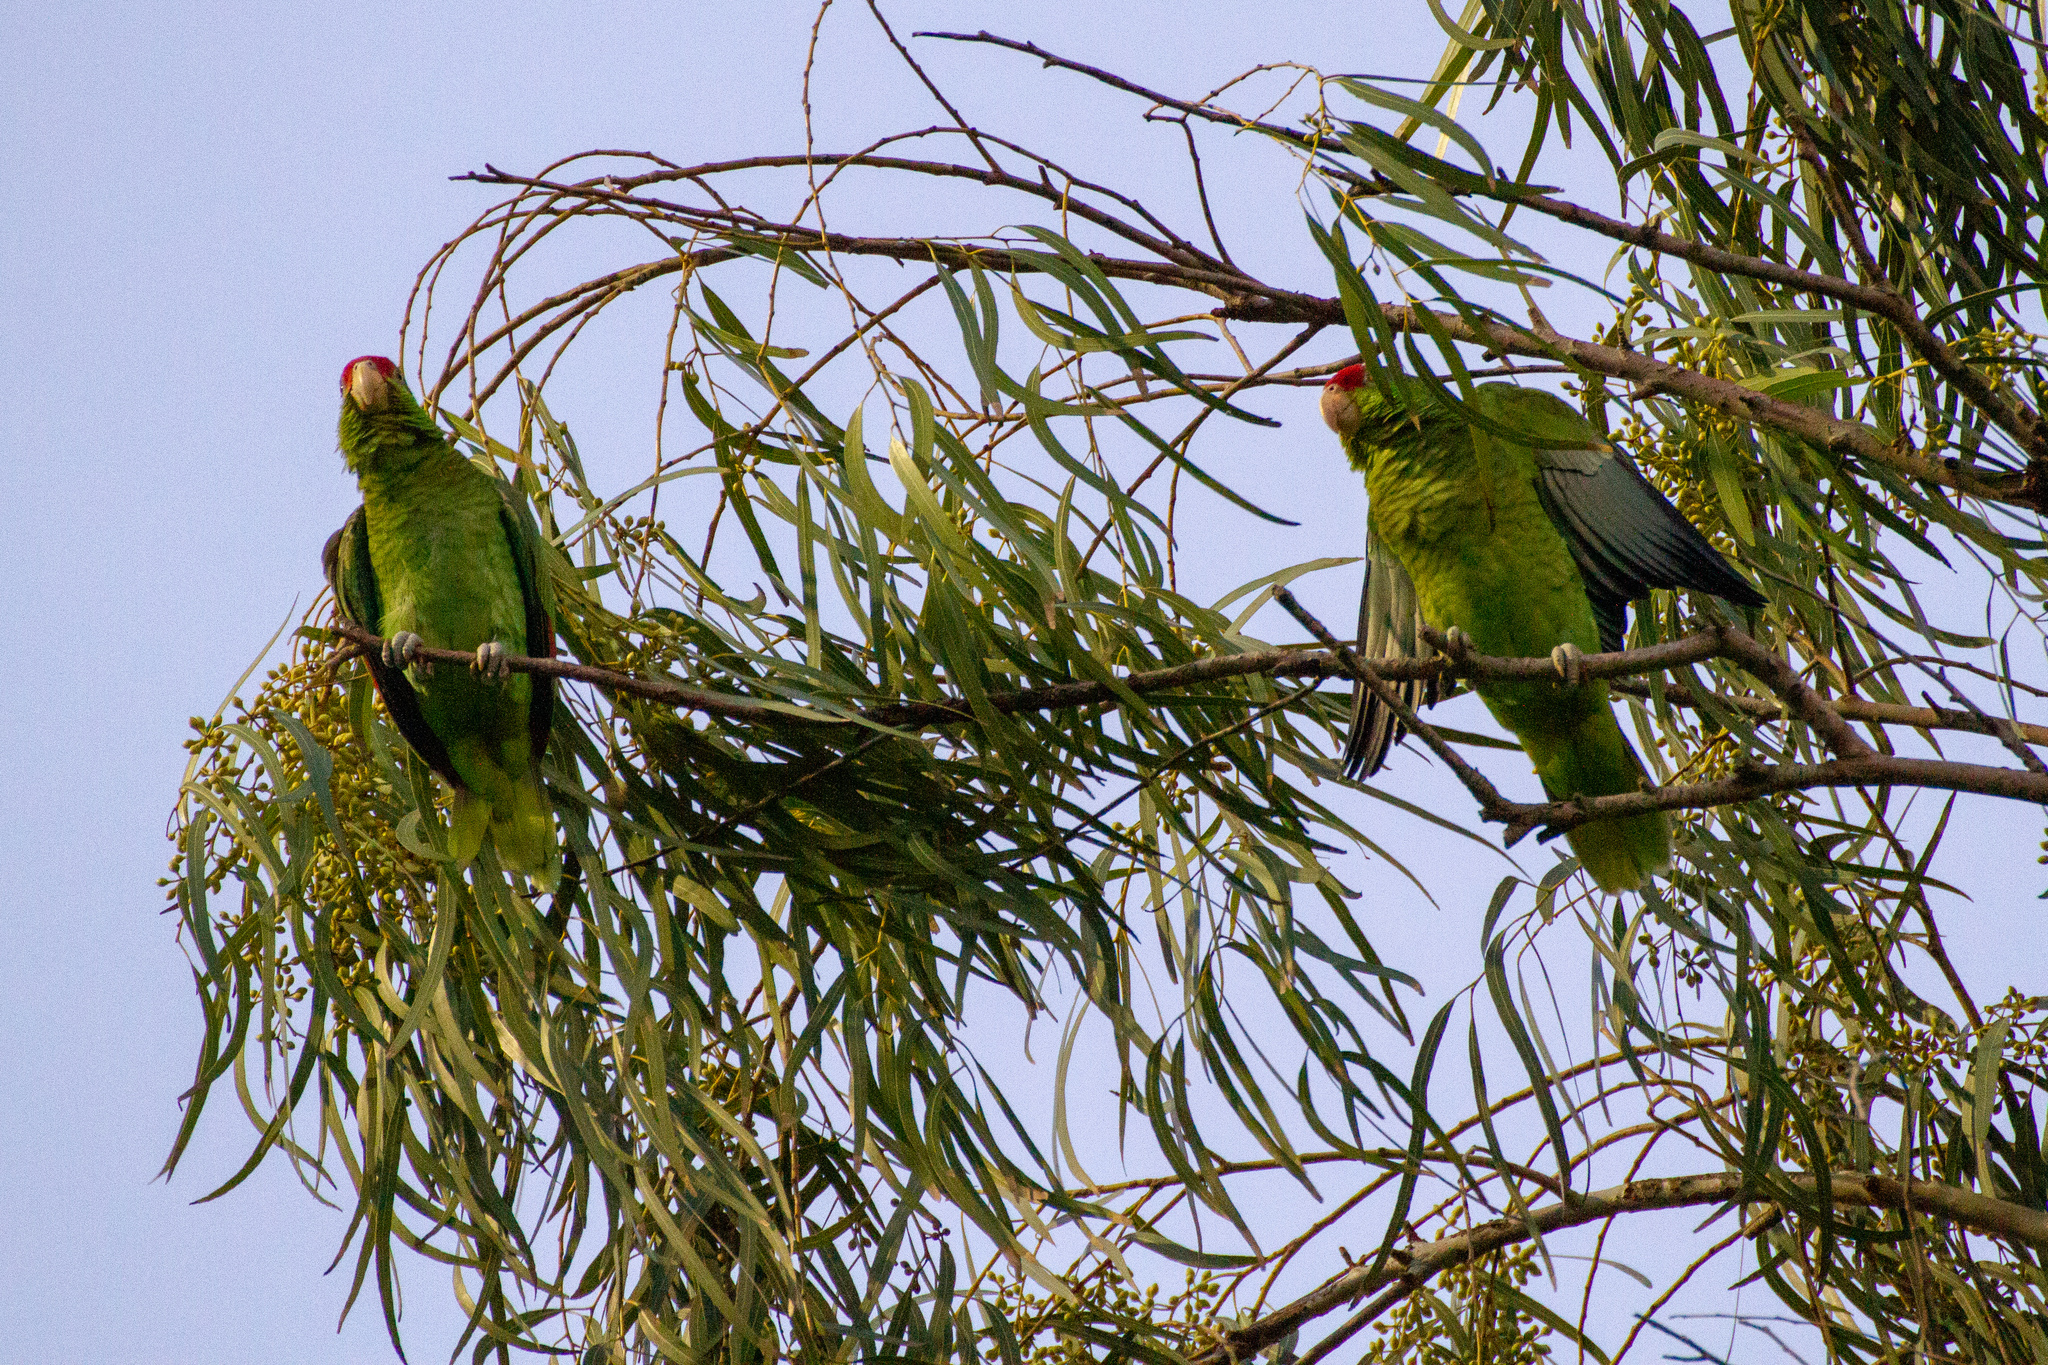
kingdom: Animalia
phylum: Chordata
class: Aves
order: Psittaciformes
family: Psittacidae
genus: Amazona
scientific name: Amazona viridigenalis
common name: Red-crowned amazon
